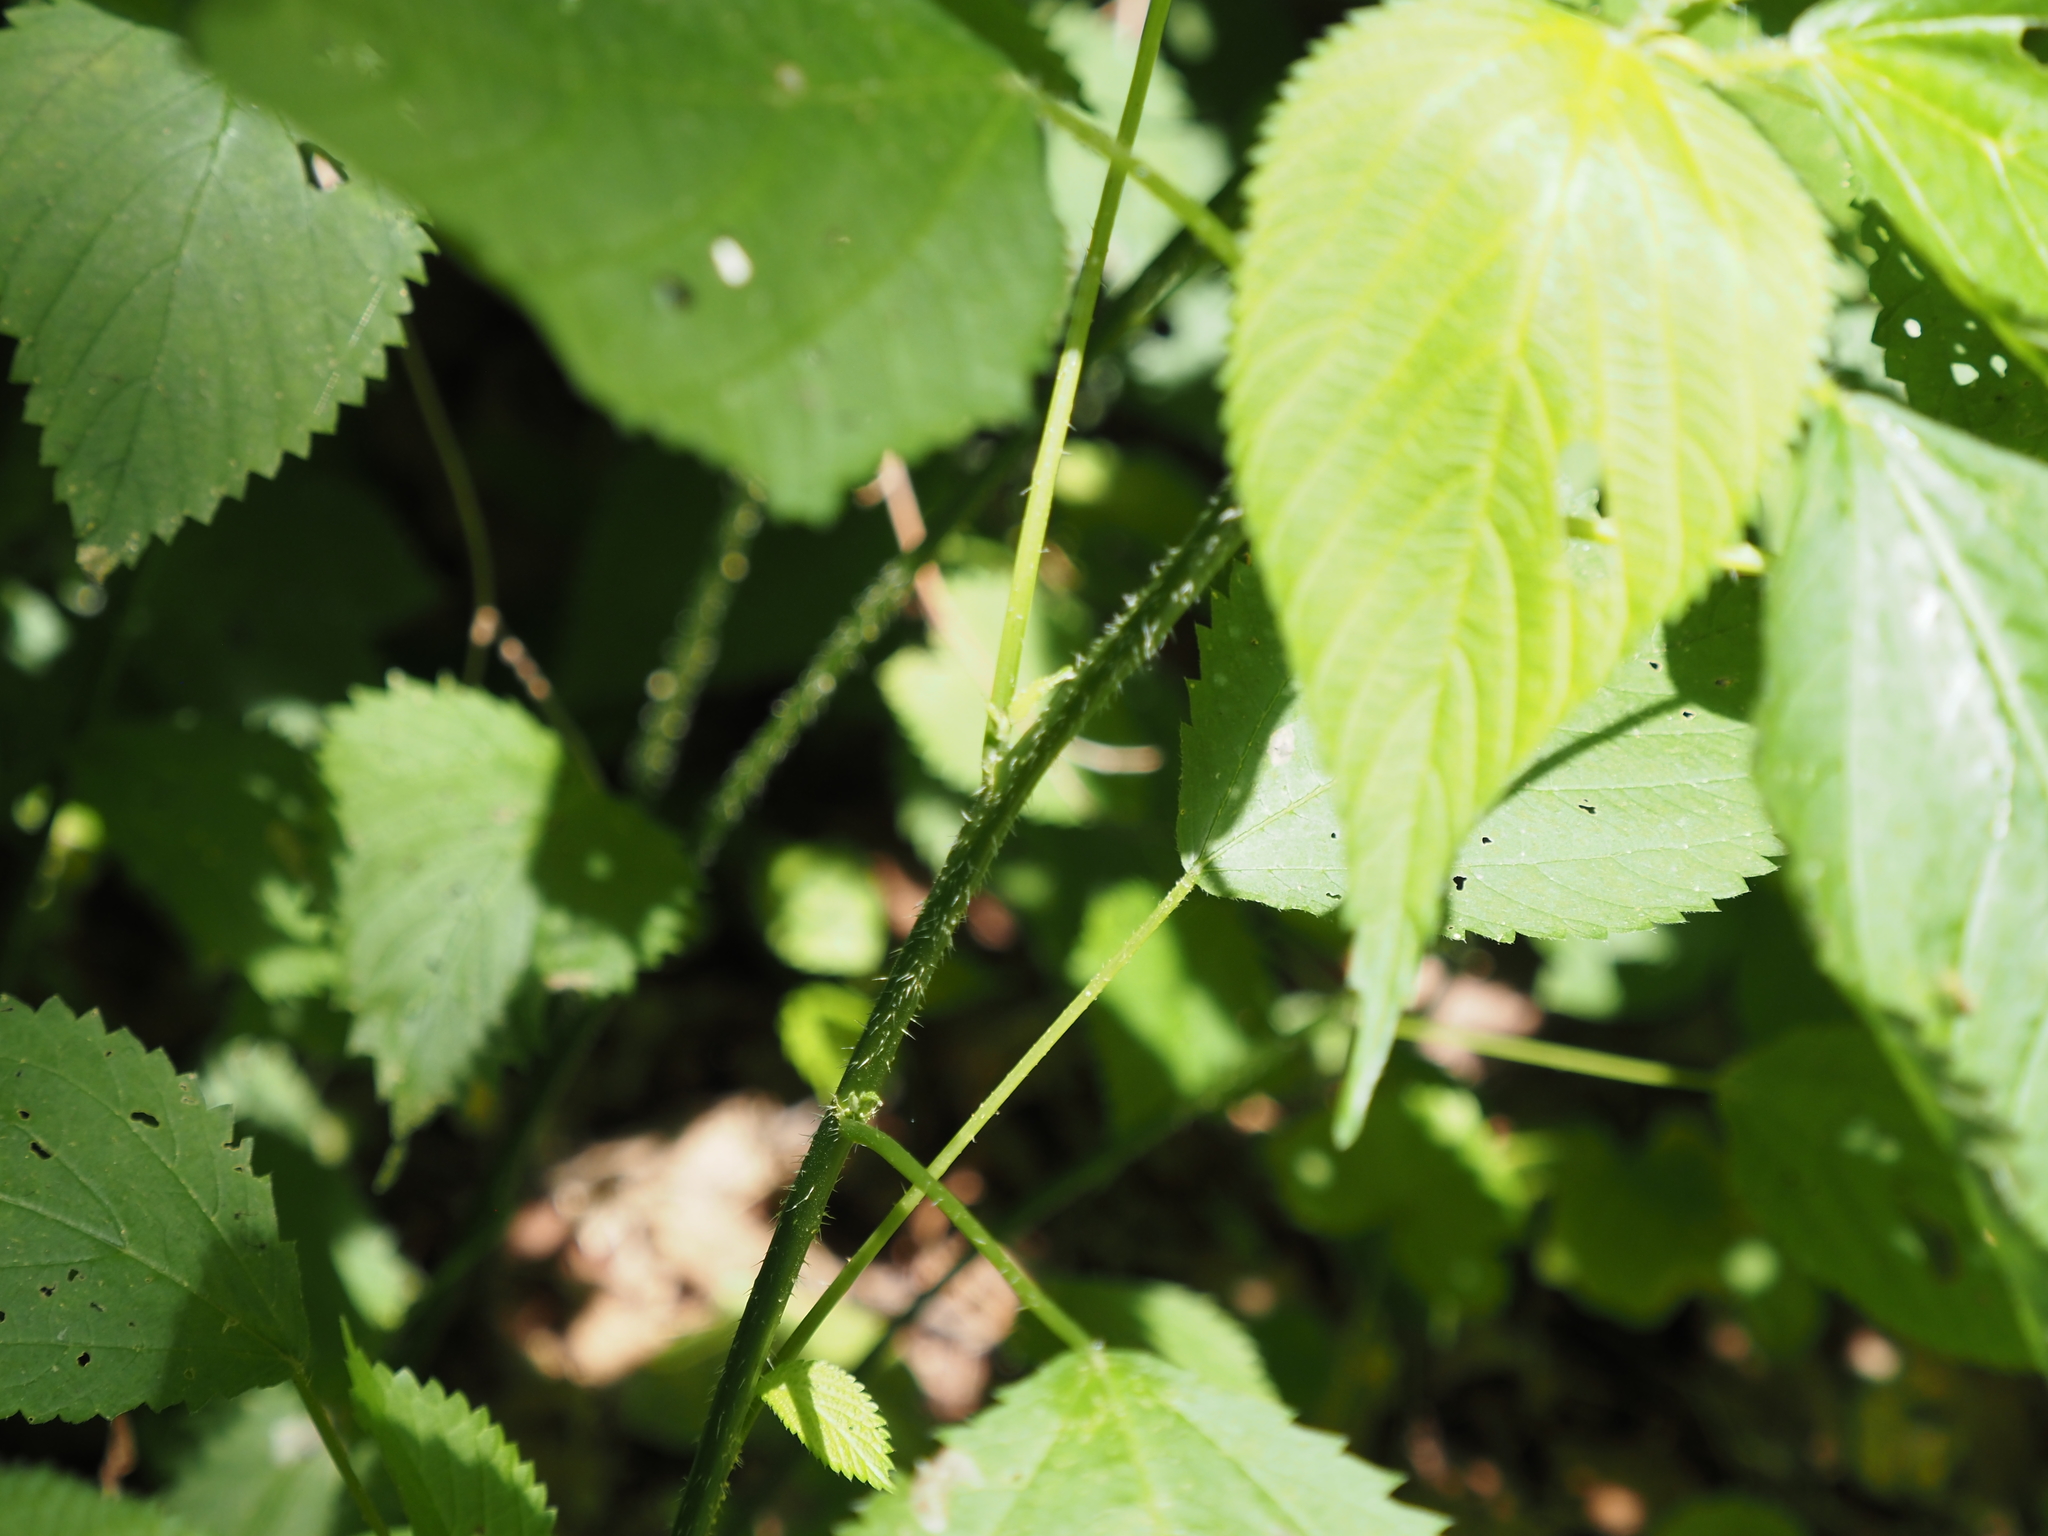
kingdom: Animalia
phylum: Arthropoda
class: Insecta
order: Diptera
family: Cecidomyiidae
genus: Dasineura
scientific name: Dasineura investita
